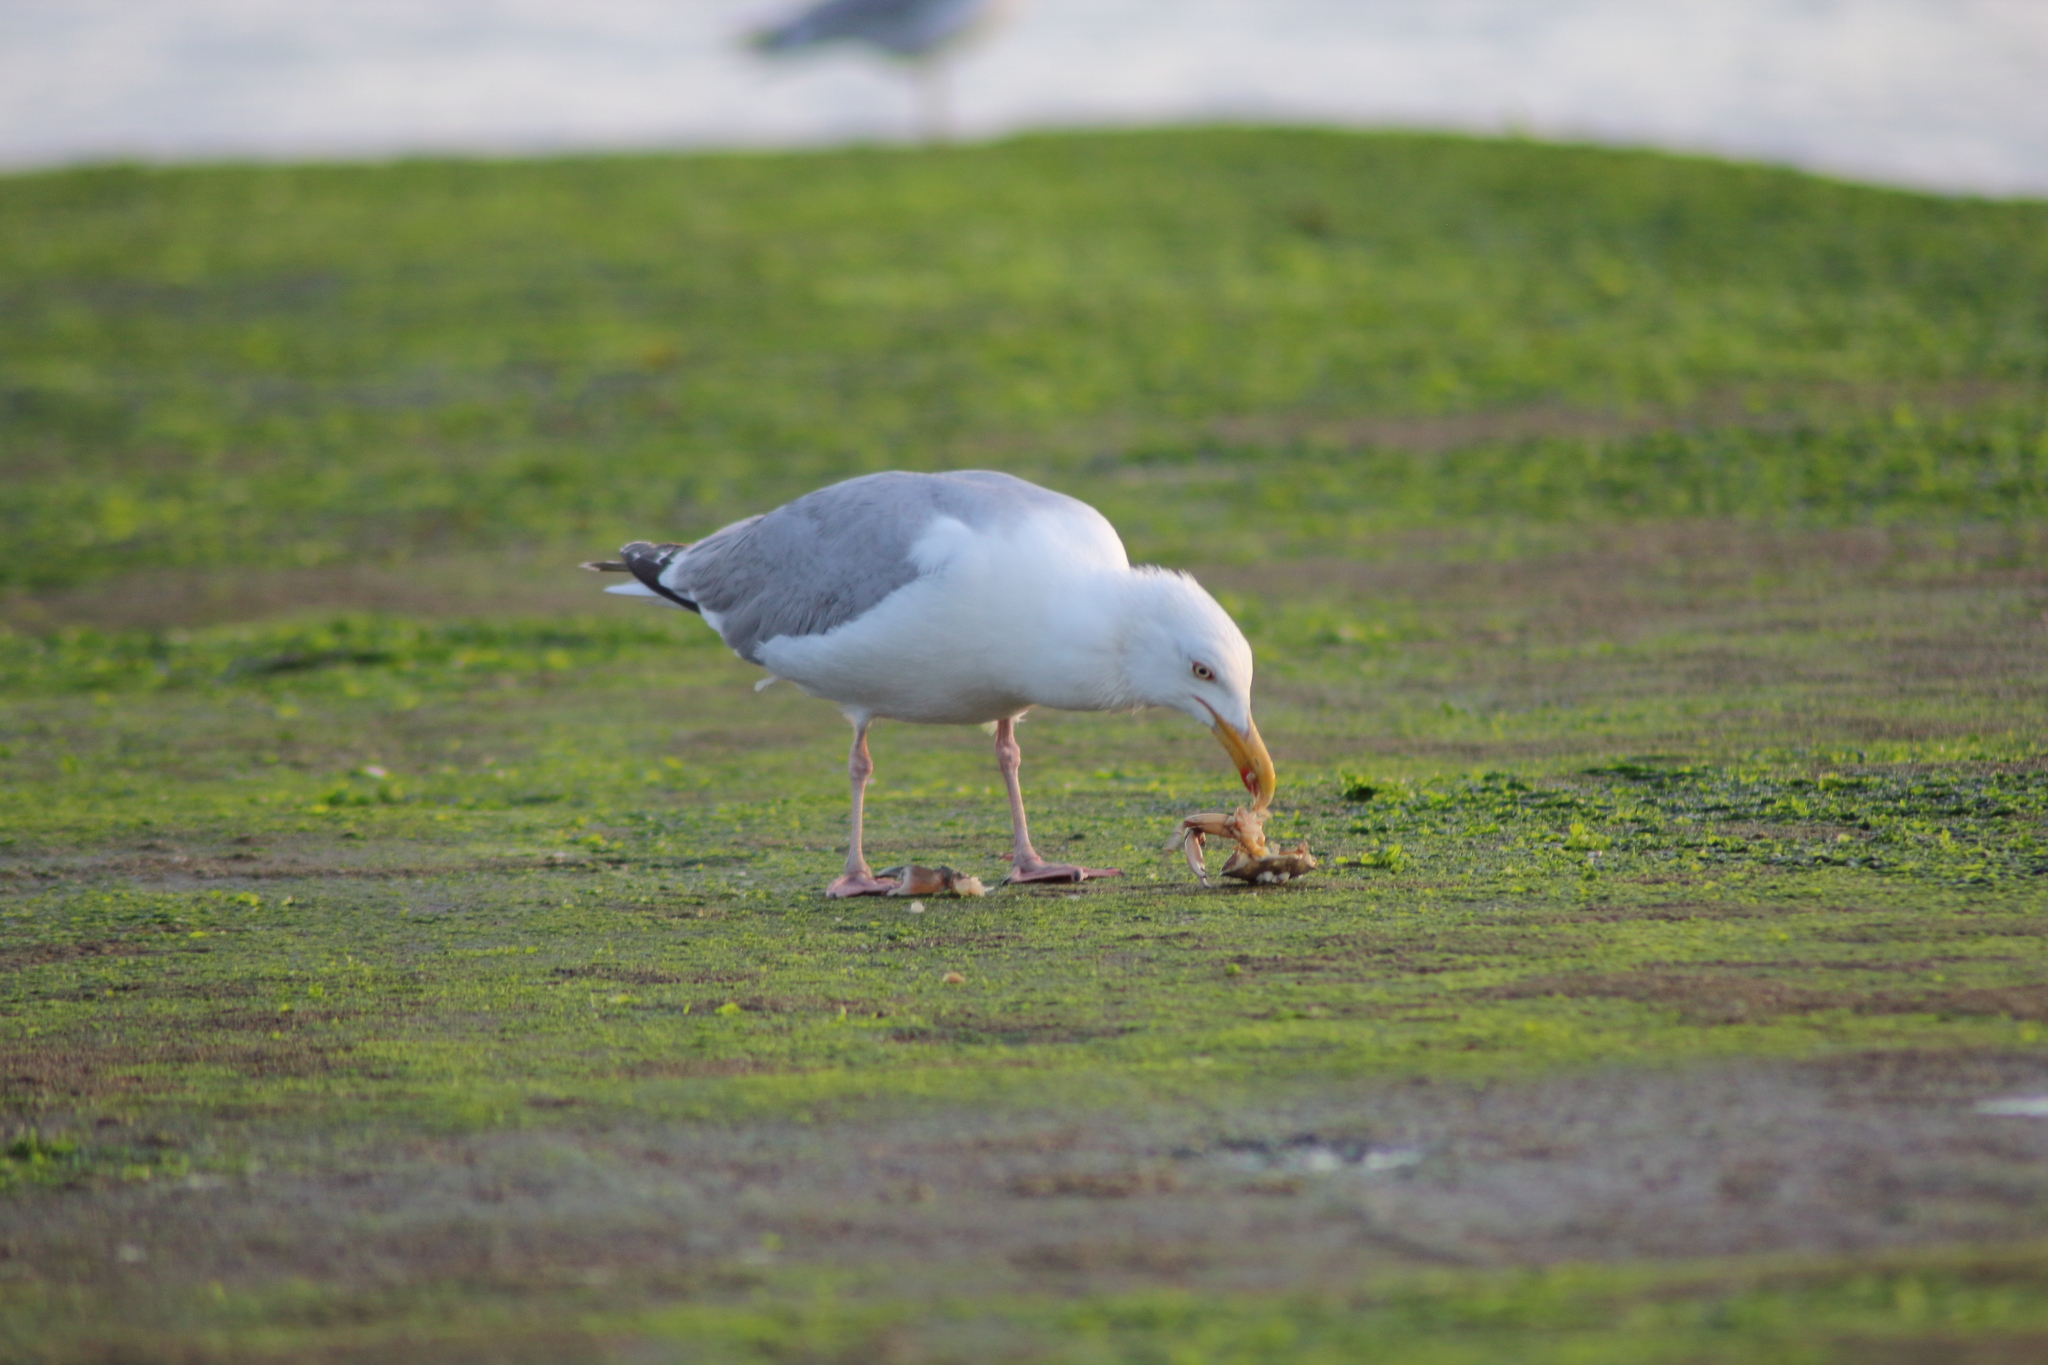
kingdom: Animalia
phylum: Chordata
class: Aves
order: Charadriiformes
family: Laridae
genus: Larus
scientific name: Larus argentatus
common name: Herring gull
